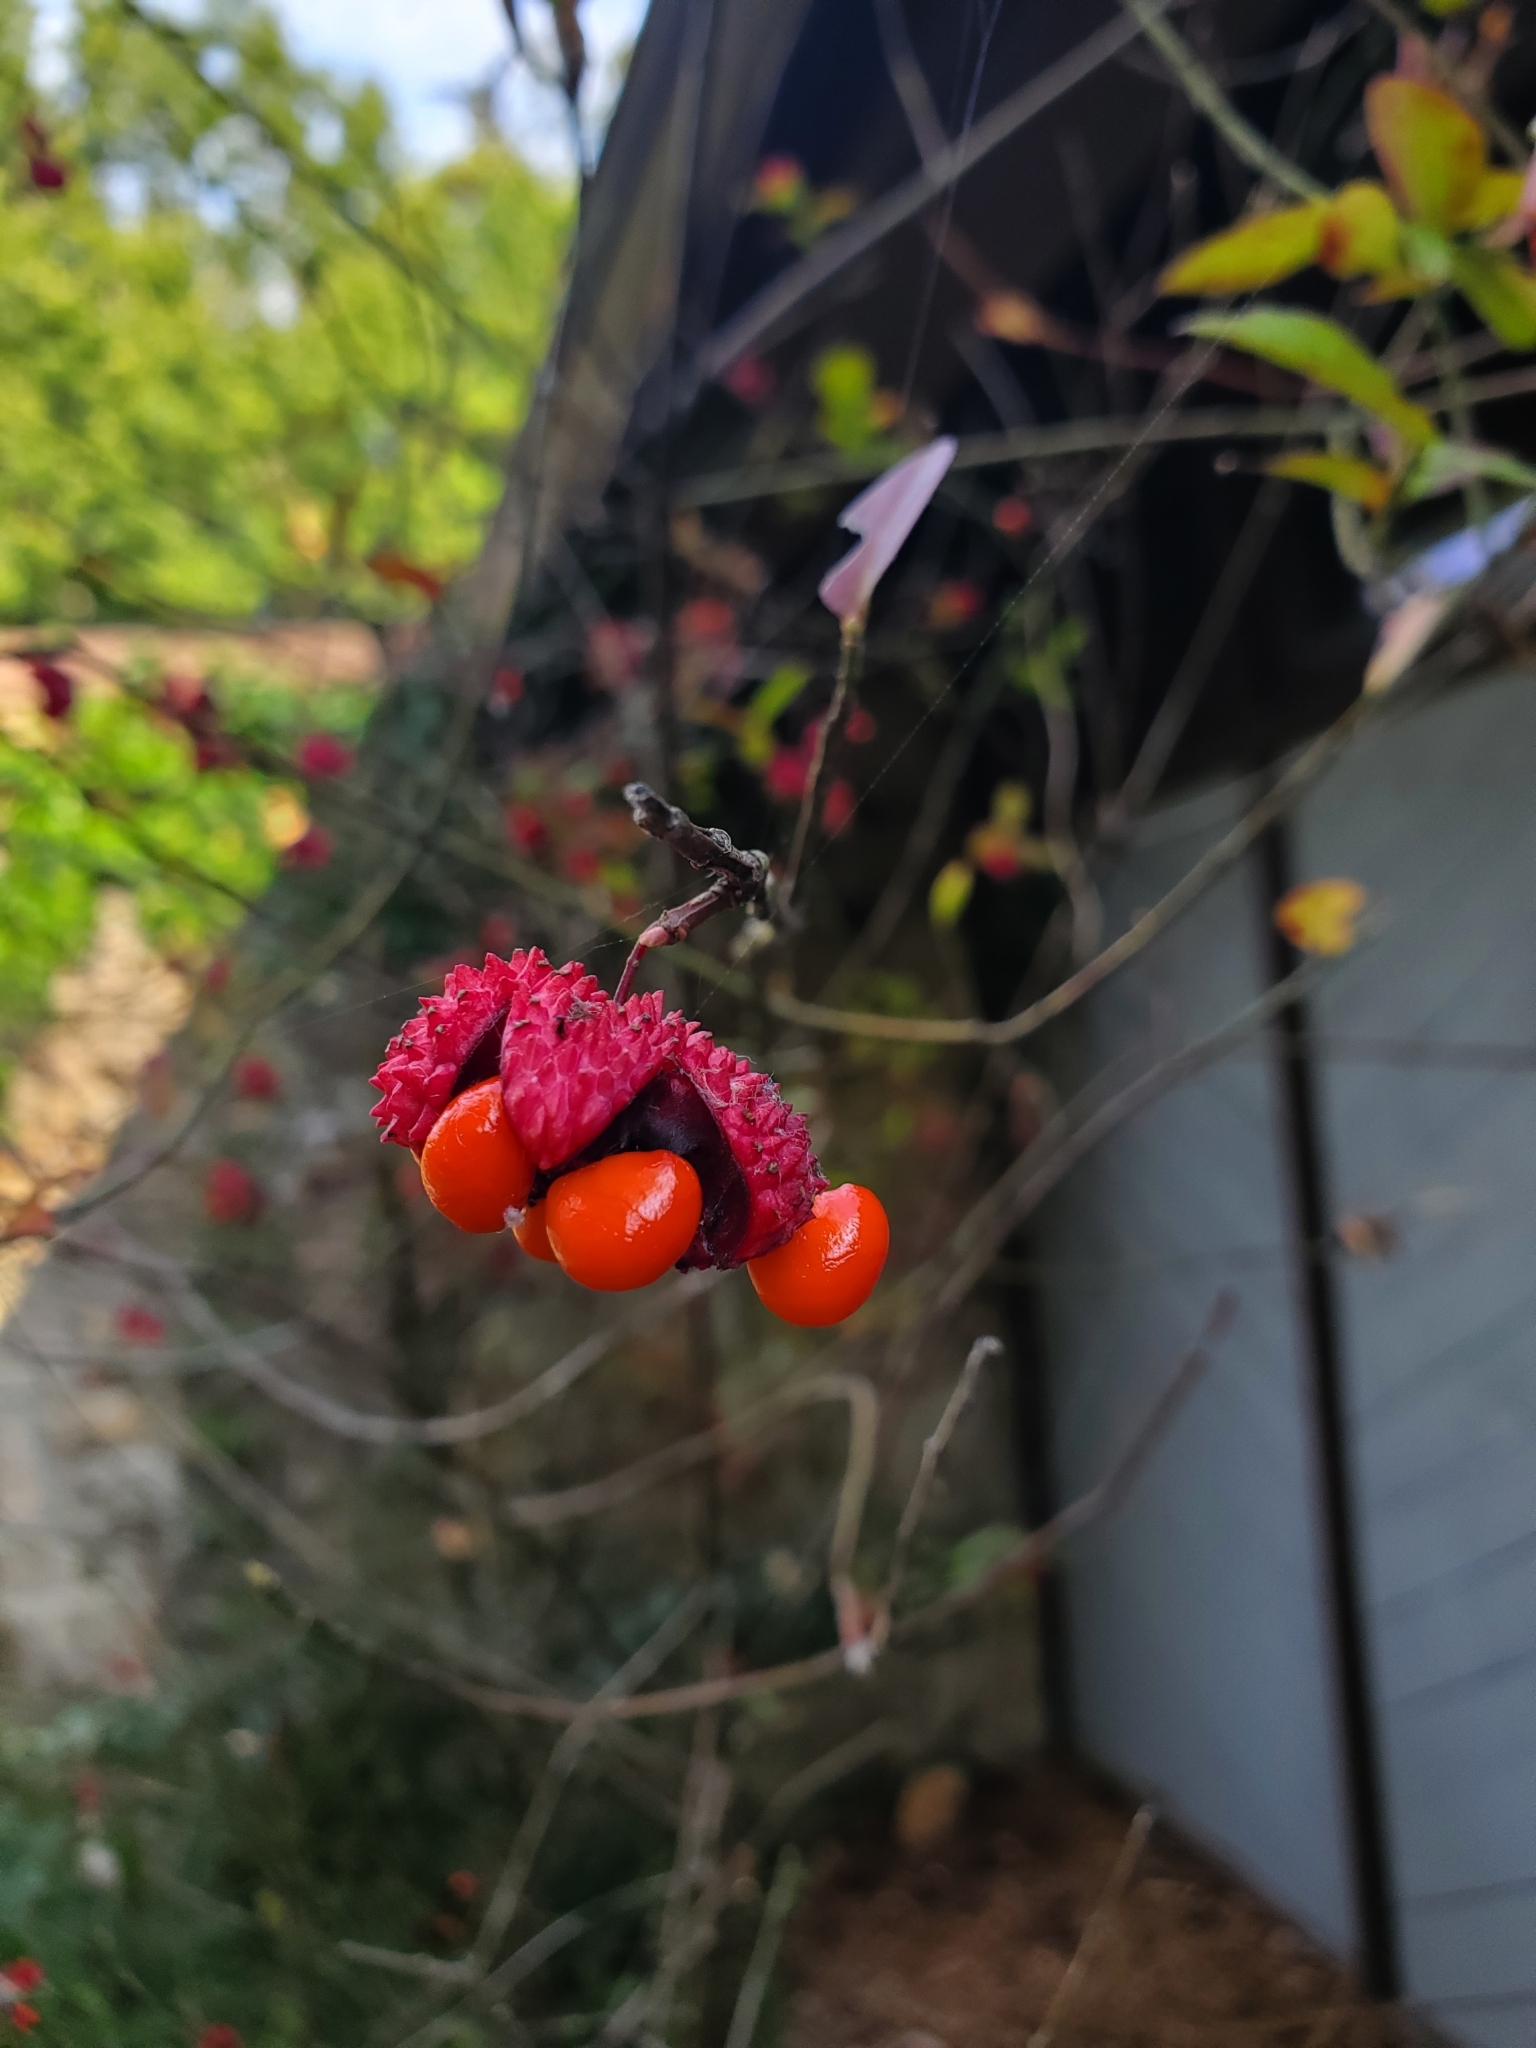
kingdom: Plantae
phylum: Tracheophyta
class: Magnoliopsida
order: Celastrales
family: Celastraceae
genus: Euonymus
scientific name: Euonymus americanus
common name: Bursting-heart
